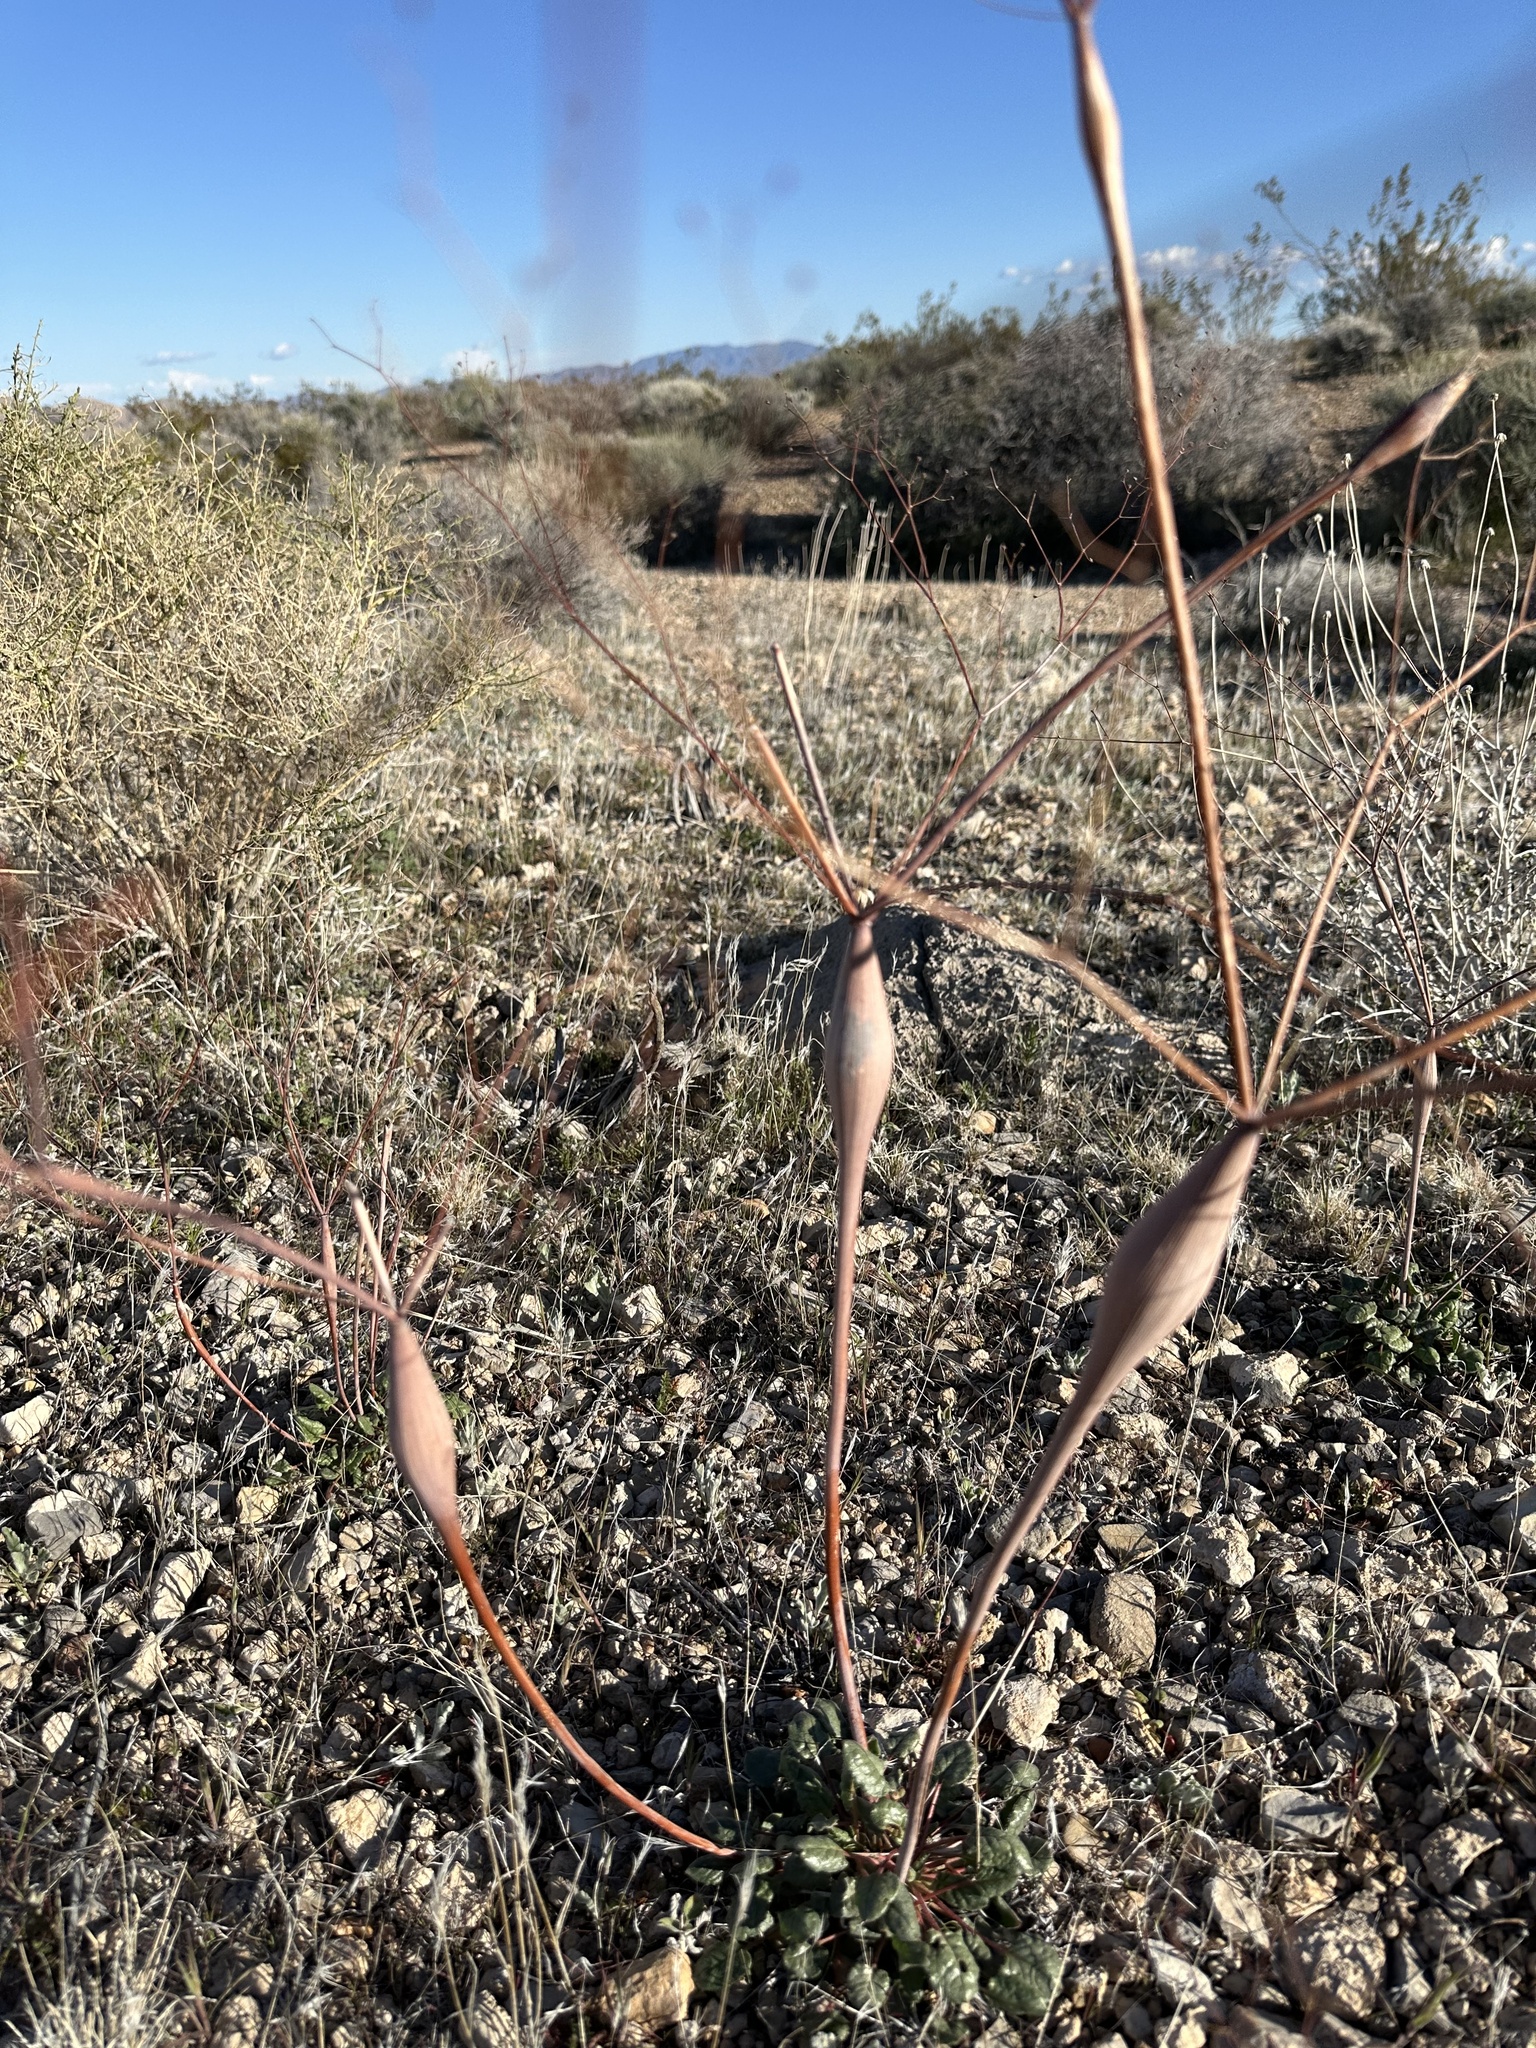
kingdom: Plantae
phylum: Tracheophyta
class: Magnoliopsida
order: Caryophyllales
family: Polygonaceae
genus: Eriogonum
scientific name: Eriogonum inflatum
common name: Desert trumpet
